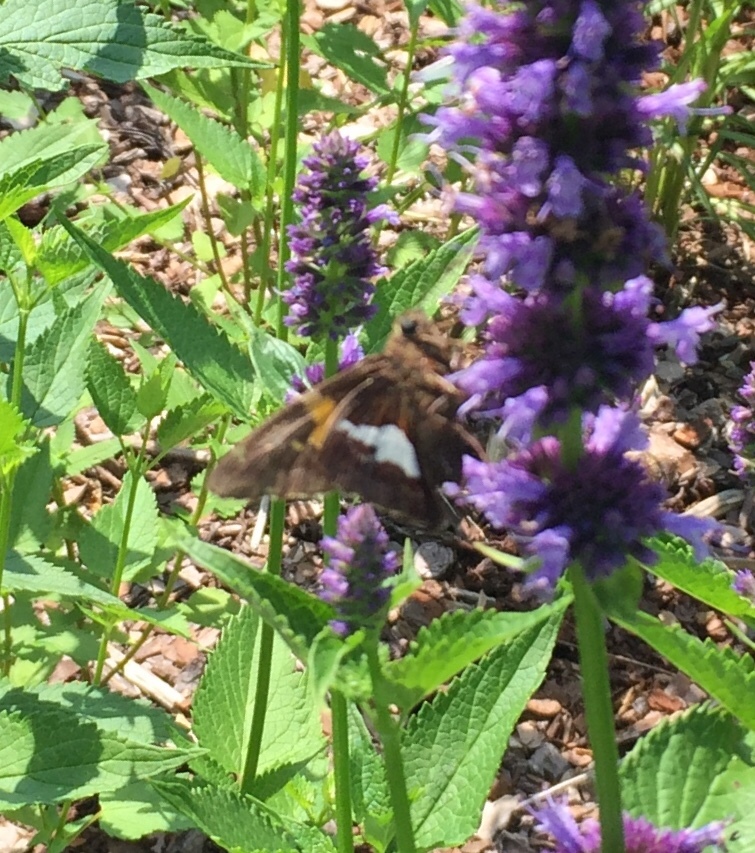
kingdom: Animalia
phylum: Arthropoda
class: Insecta
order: Lepidoptera
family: Hesperiidae
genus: Epargyreus
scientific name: Epargyreus clarus
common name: Silver-spotted skipper
